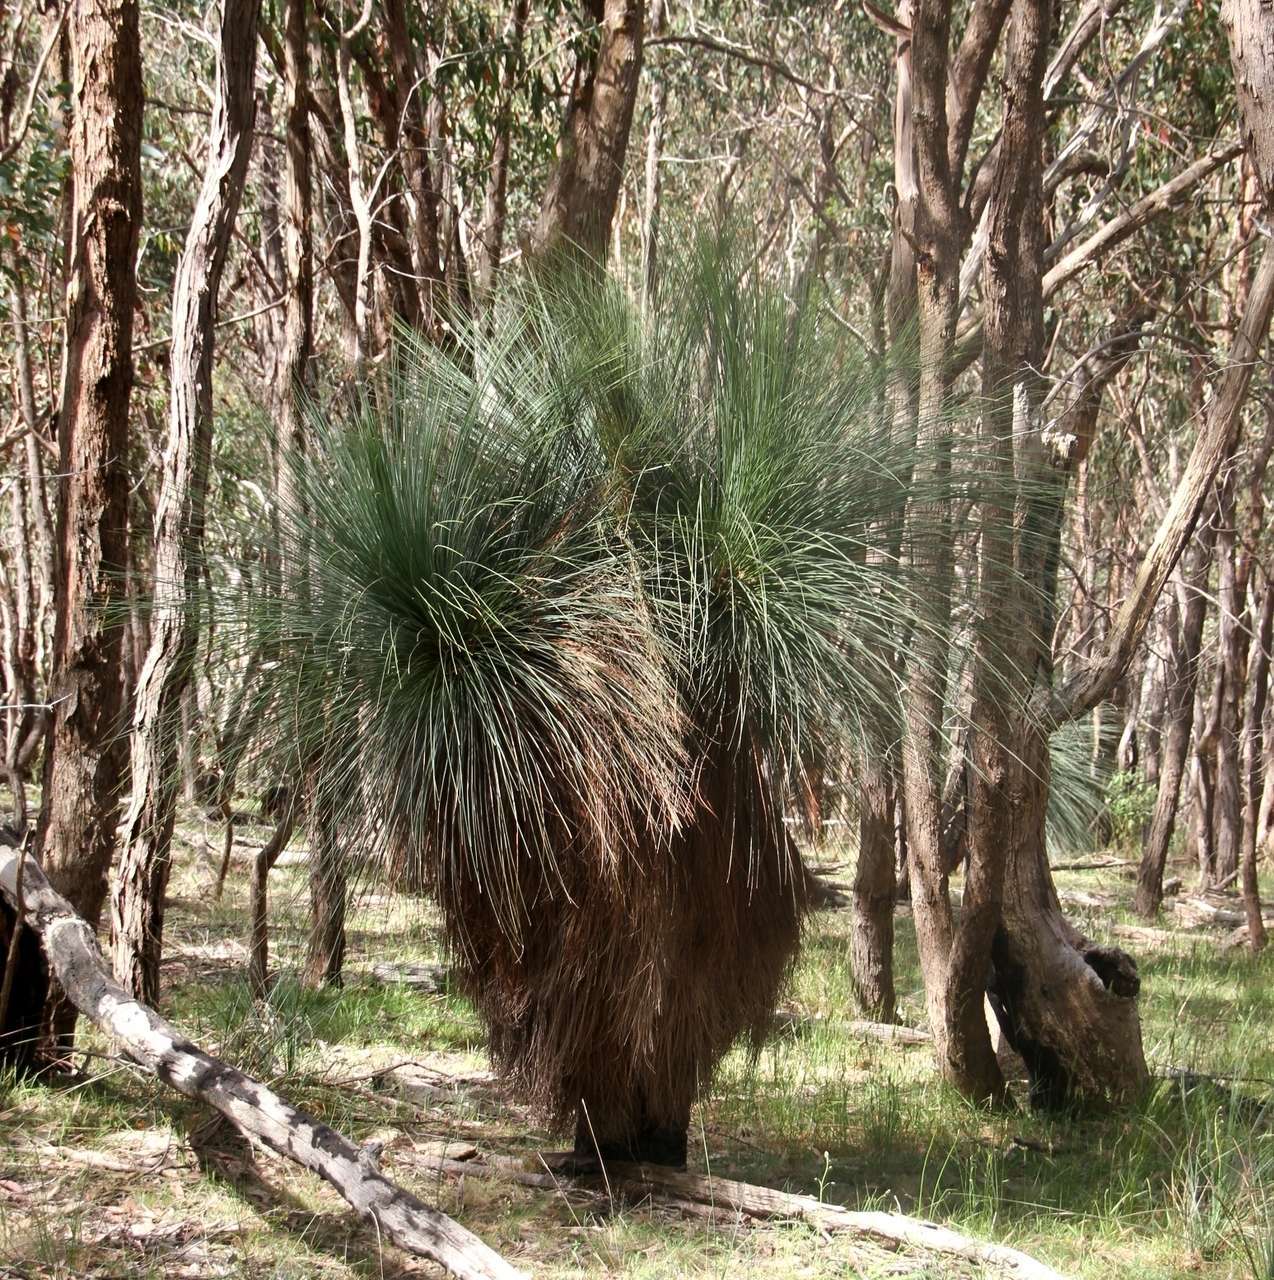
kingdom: Plantae
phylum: Tracheophyta
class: Liliopsida
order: Asparagales
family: Asphodelaceae
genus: Xanthorrhoea
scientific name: Xanthorrhoea australis
